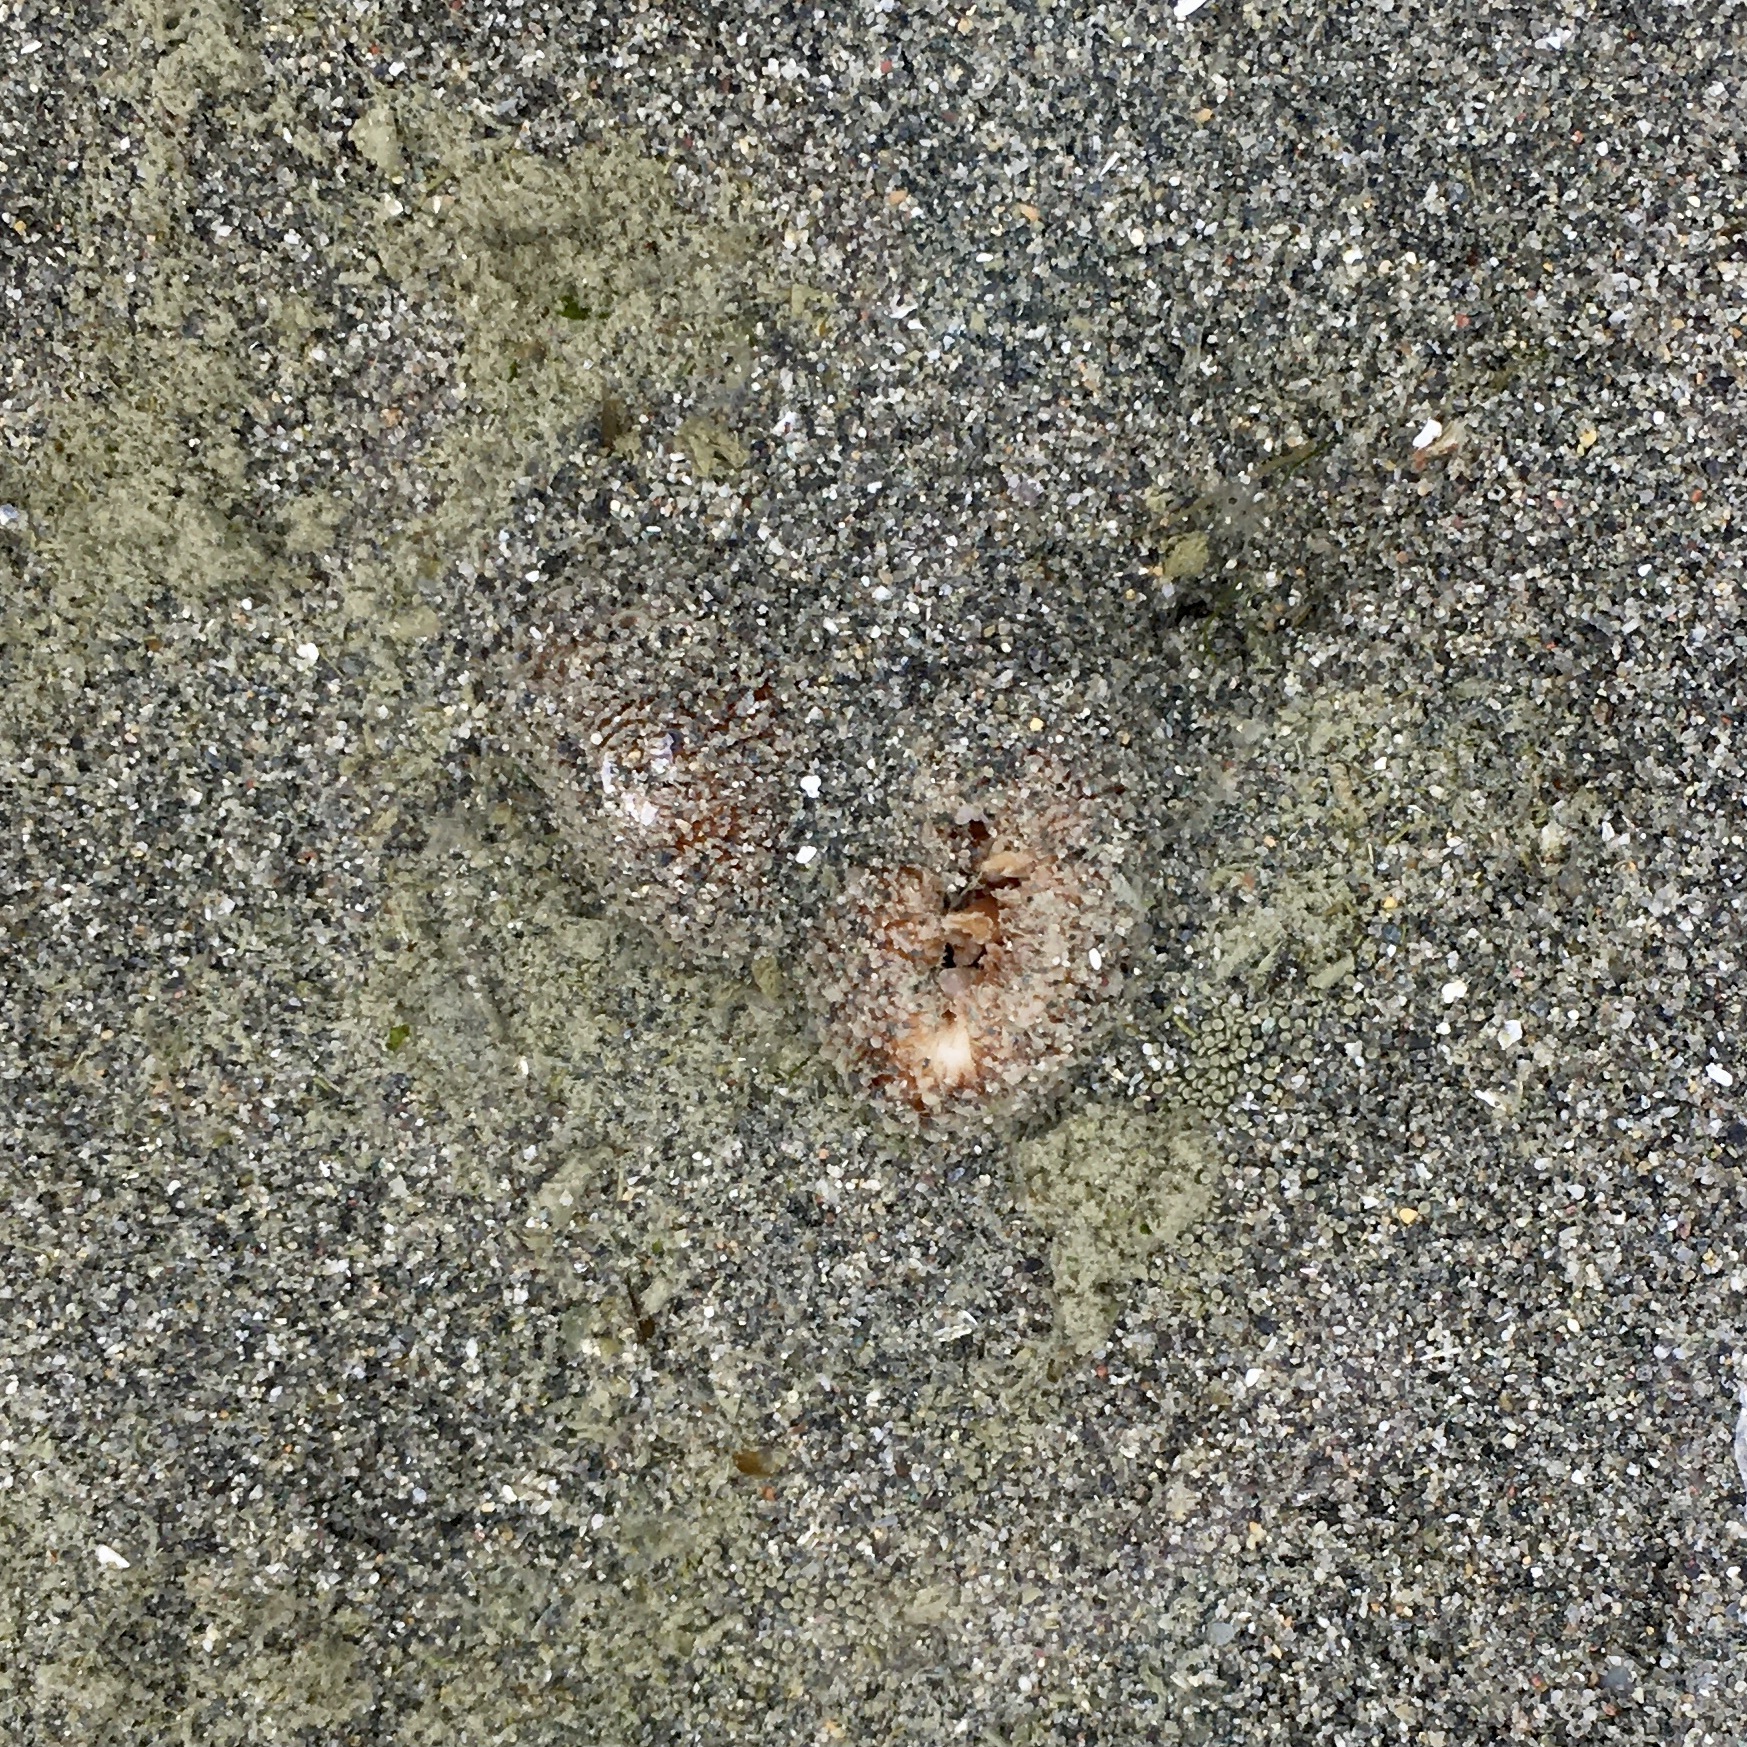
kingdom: Animalia
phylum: Mollusca
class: Bivalvia
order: Myida
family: Pholadidae
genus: Zirfaea
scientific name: Zirfaea pilsbryi
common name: Rough piddock
